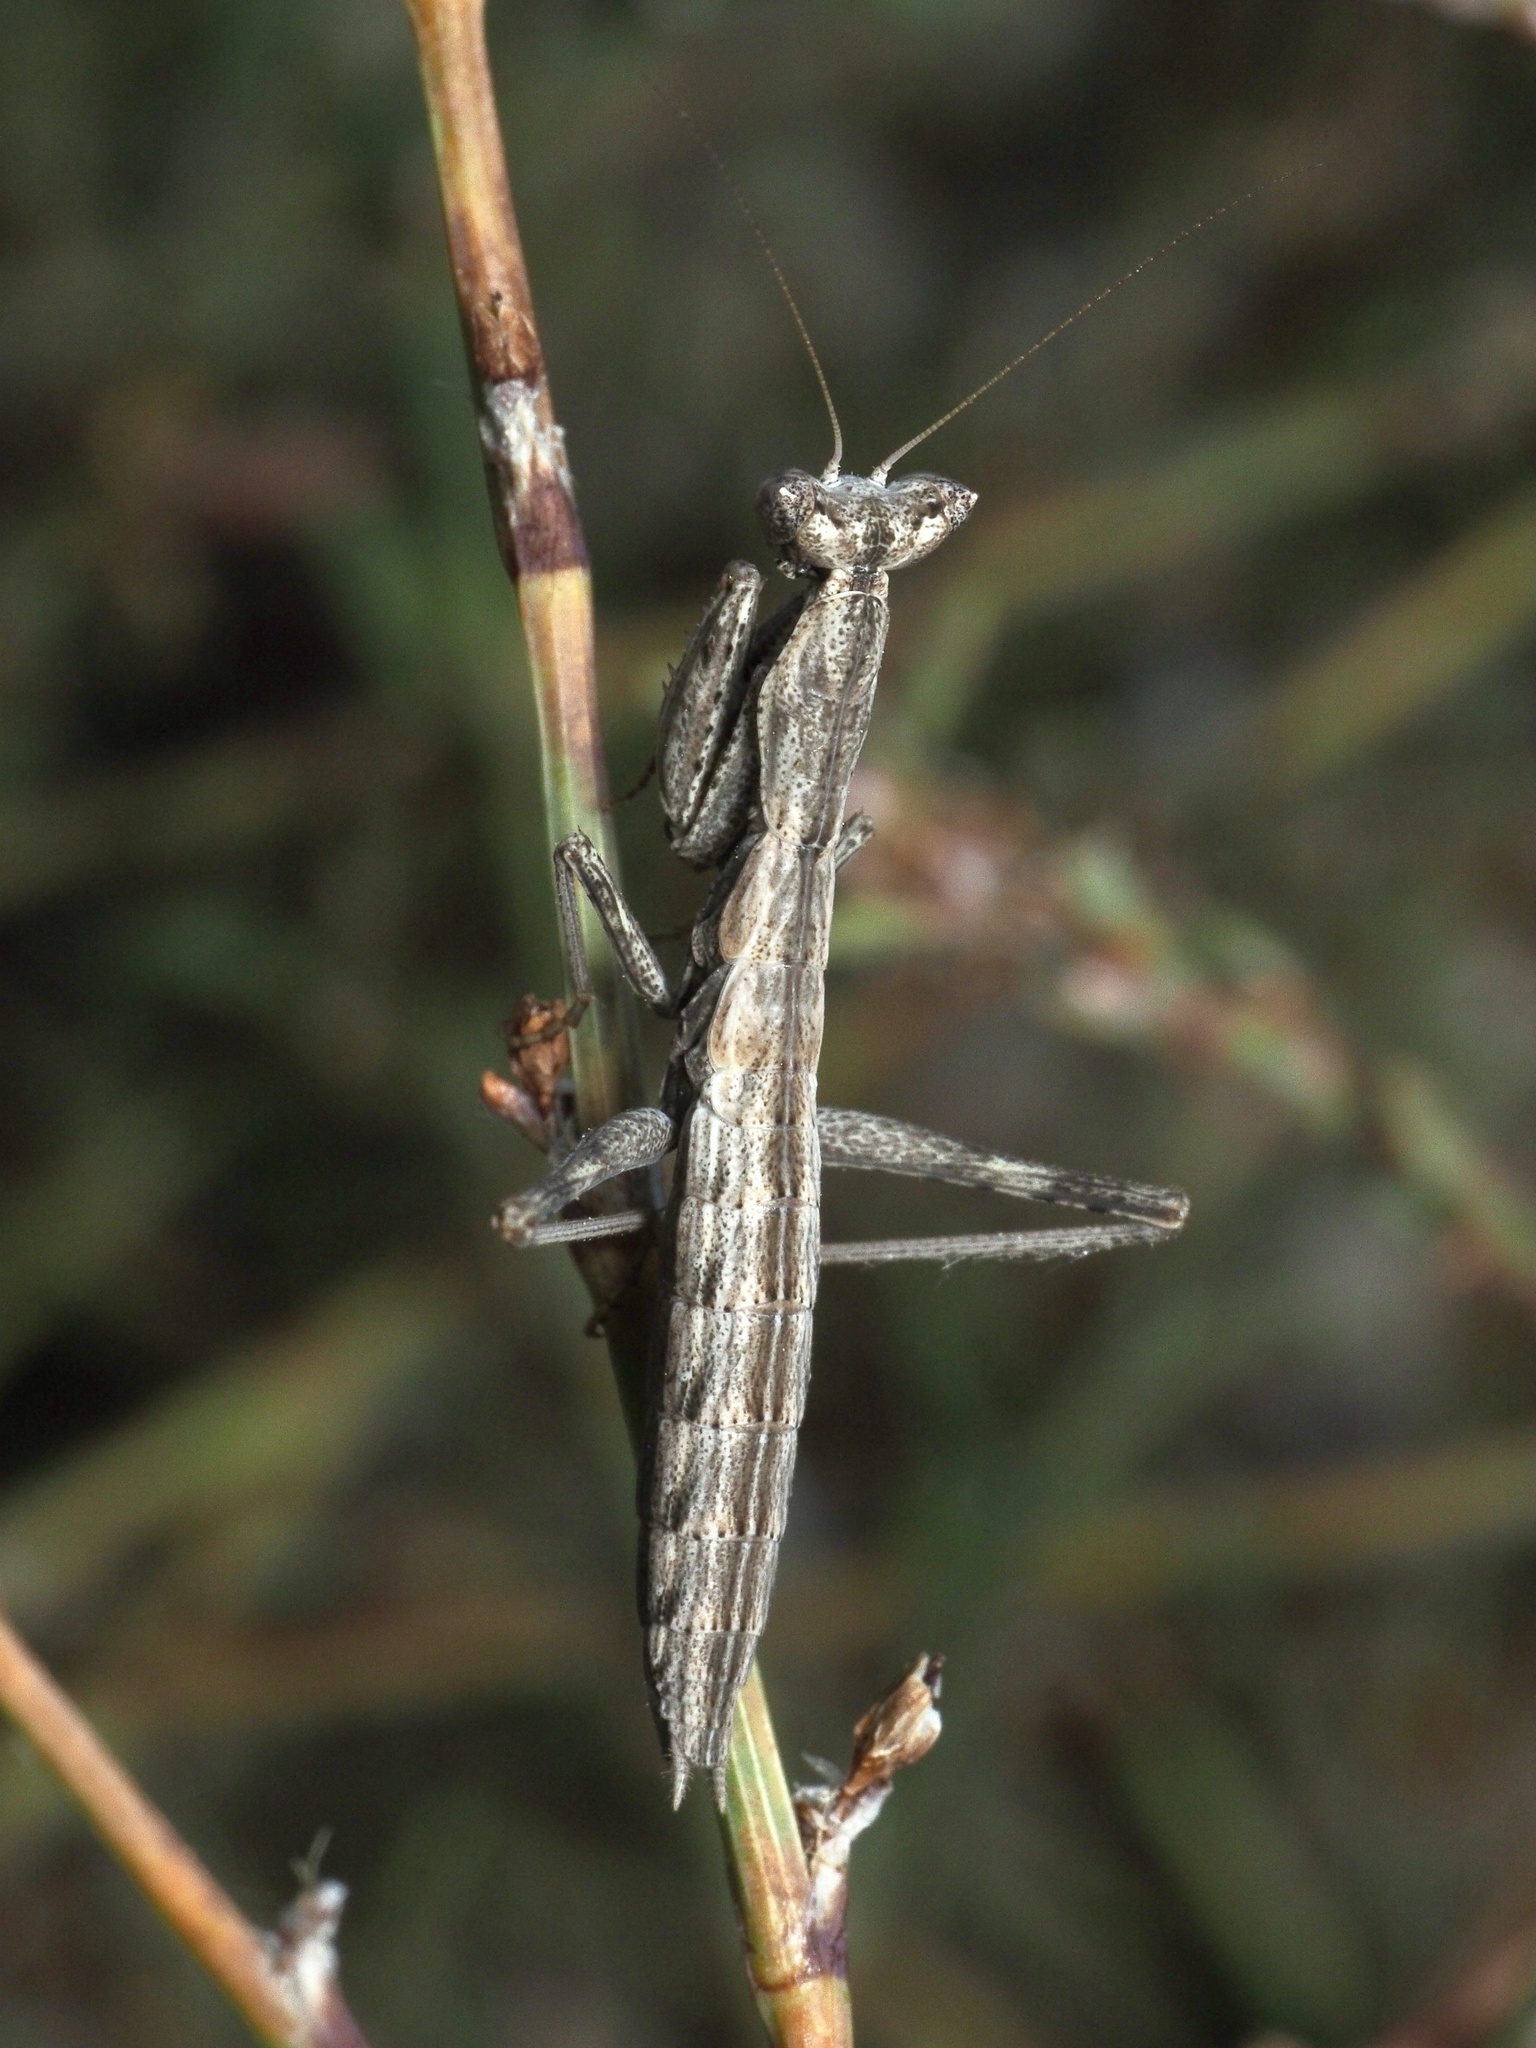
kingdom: Animalia
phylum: Arthropoda
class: Insecta
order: Mantodea
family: Amelidae
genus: Ameles
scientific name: Ameles heldreichi
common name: Heldreich's dwarf mantis
